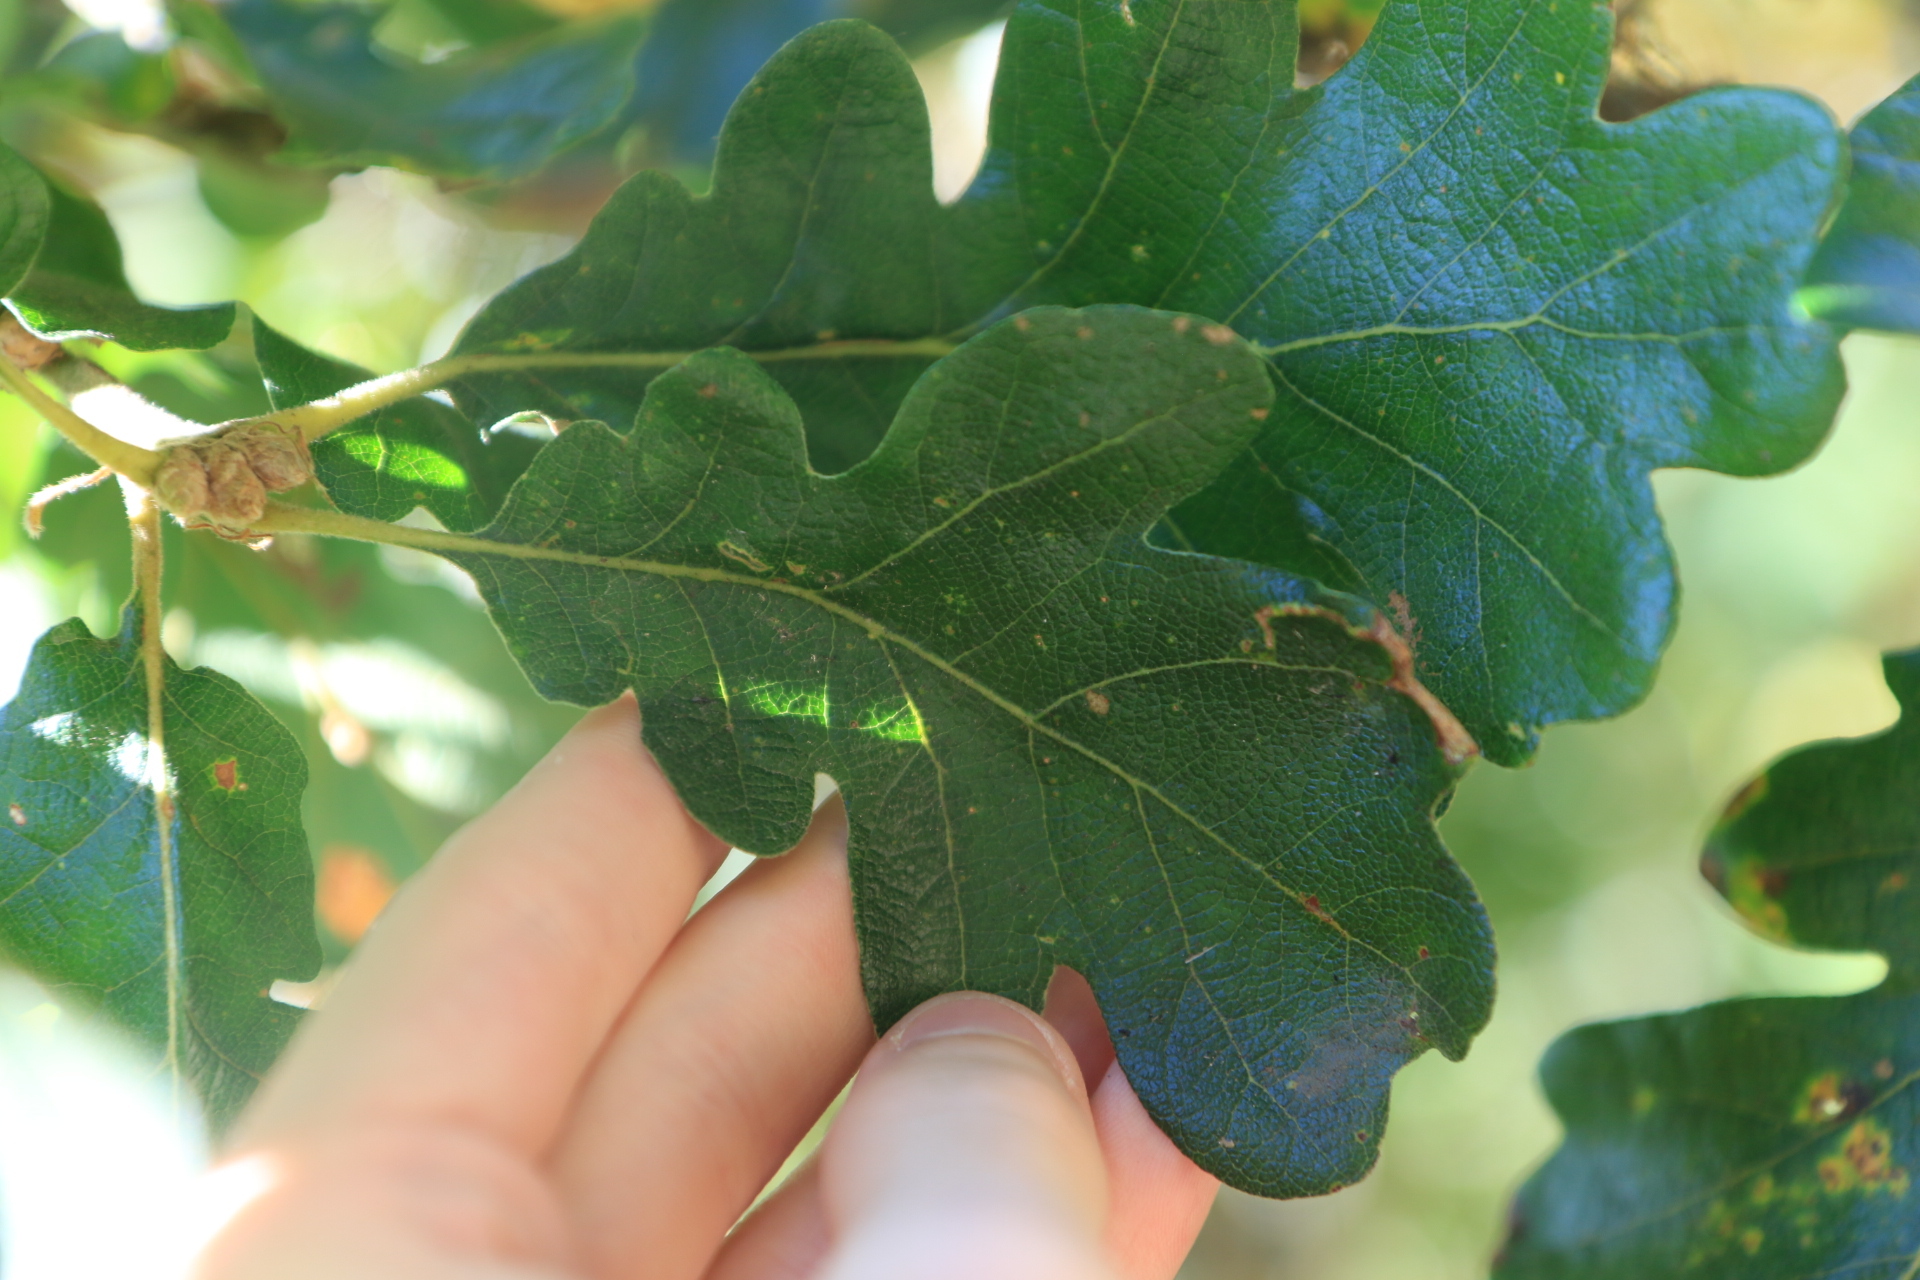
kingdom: Plantae
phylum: Tracheophyta
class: Magnoliopsida
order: Fagales
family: Fagaceae
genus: Quercus
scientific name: Quercus garryana
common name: Garry oak
